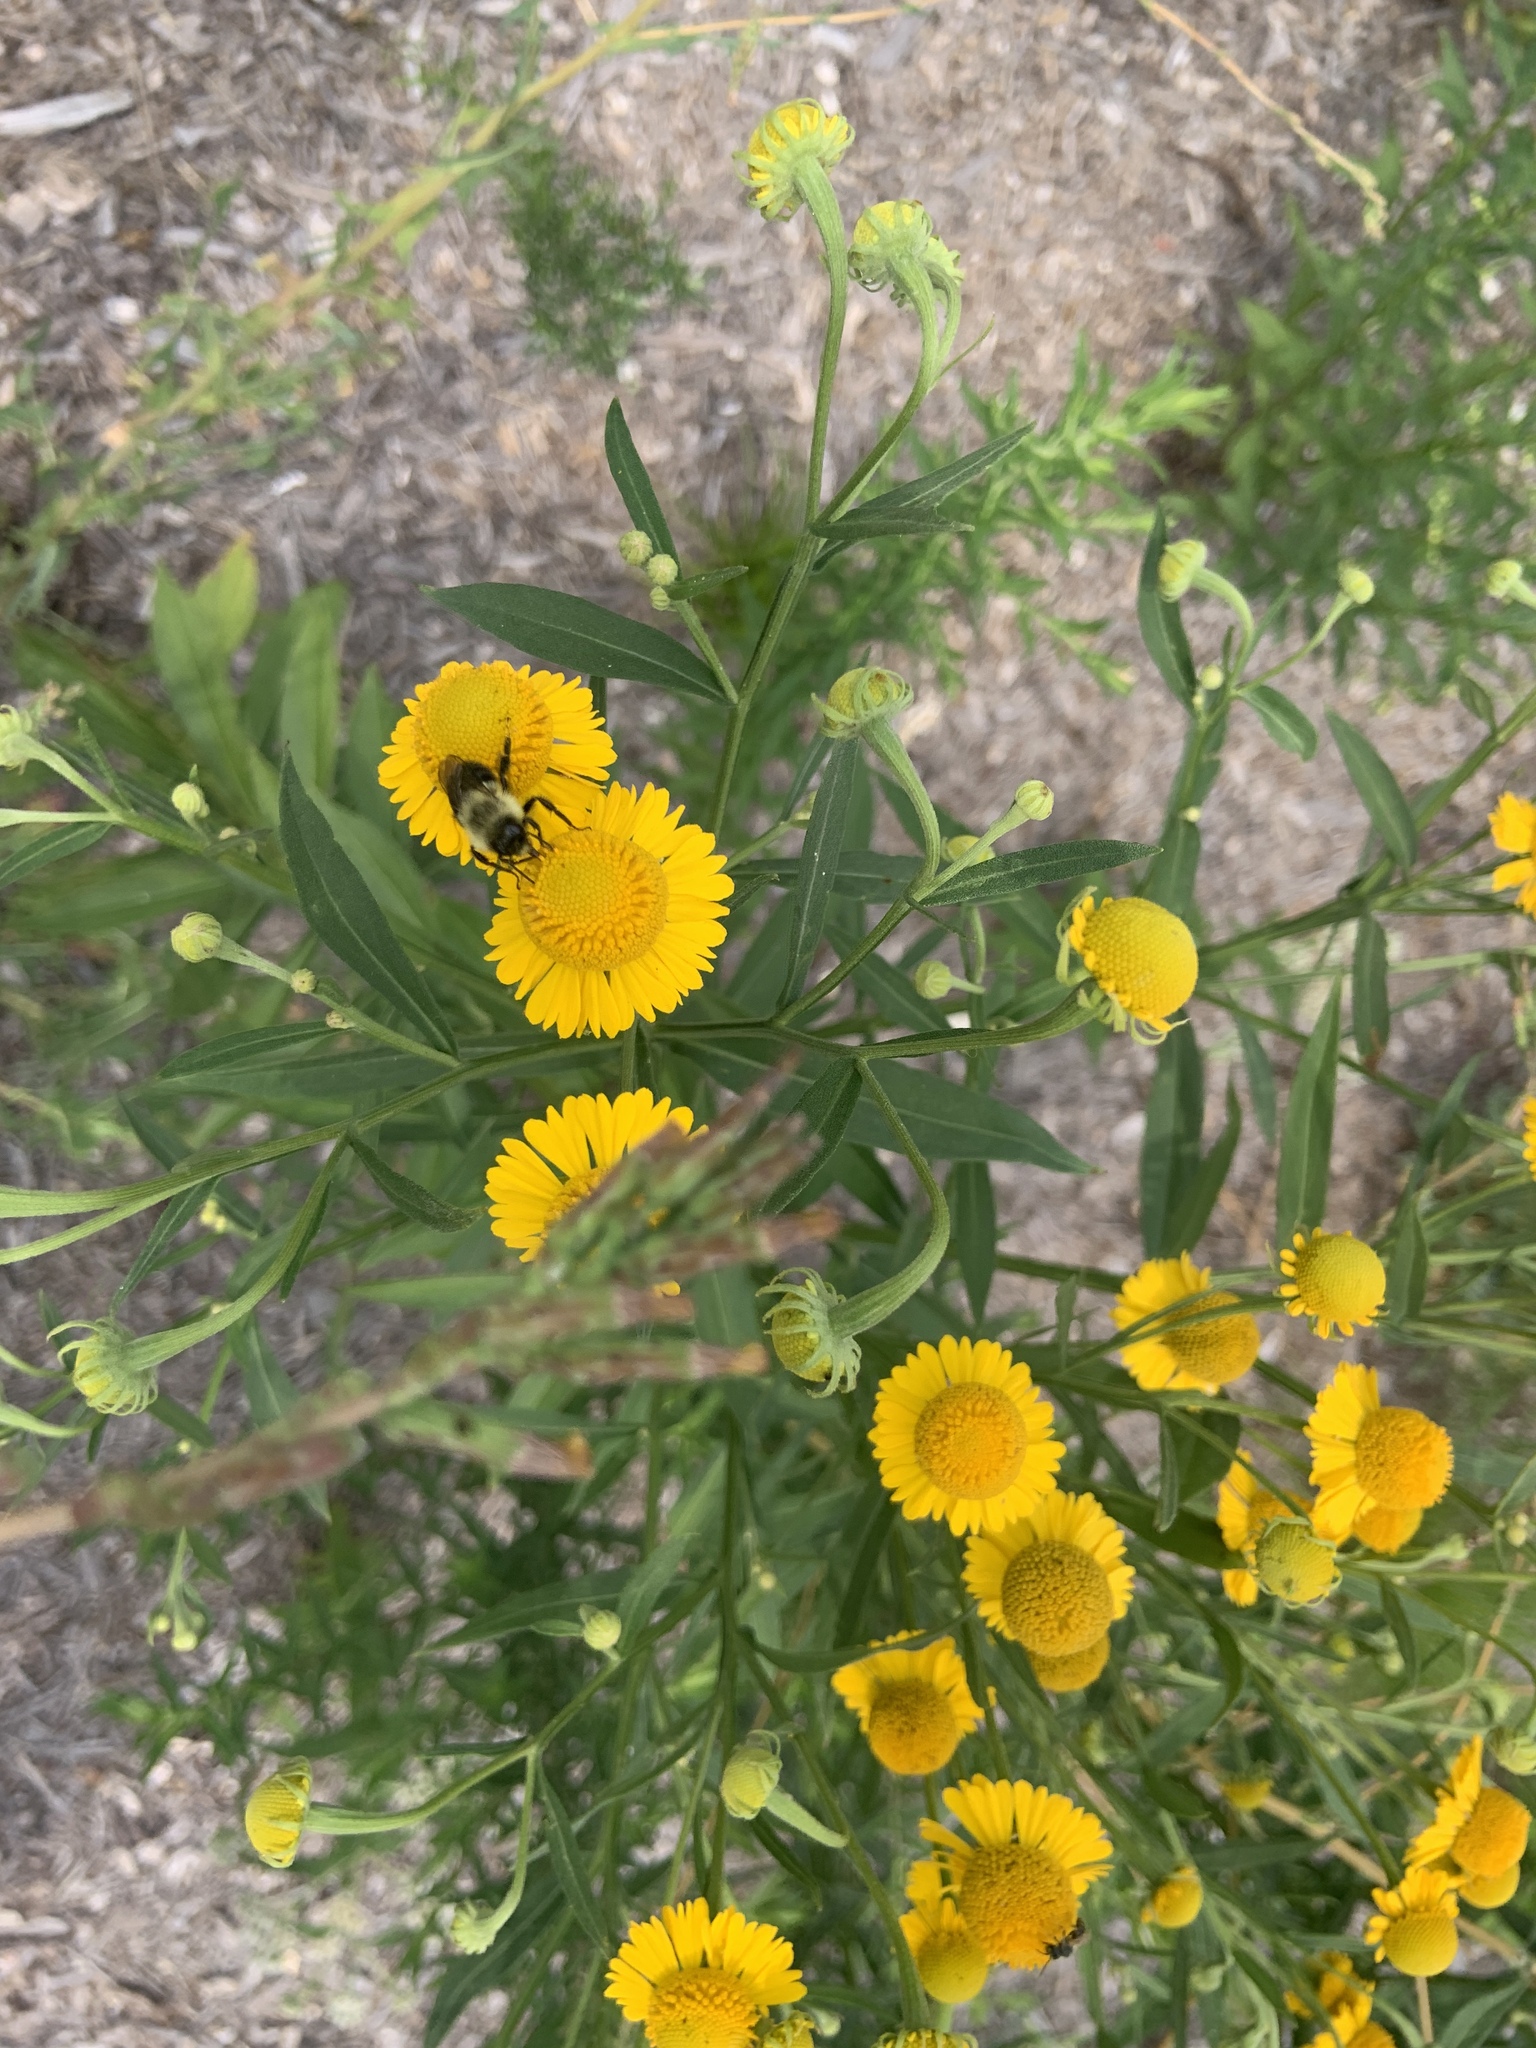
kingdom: Animalia
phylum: Arthropoda
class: Insecta
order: Hymenoptera
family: Apidae
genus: Bombus
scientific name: Bombus impatiens
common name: Common eastern bumble bee
